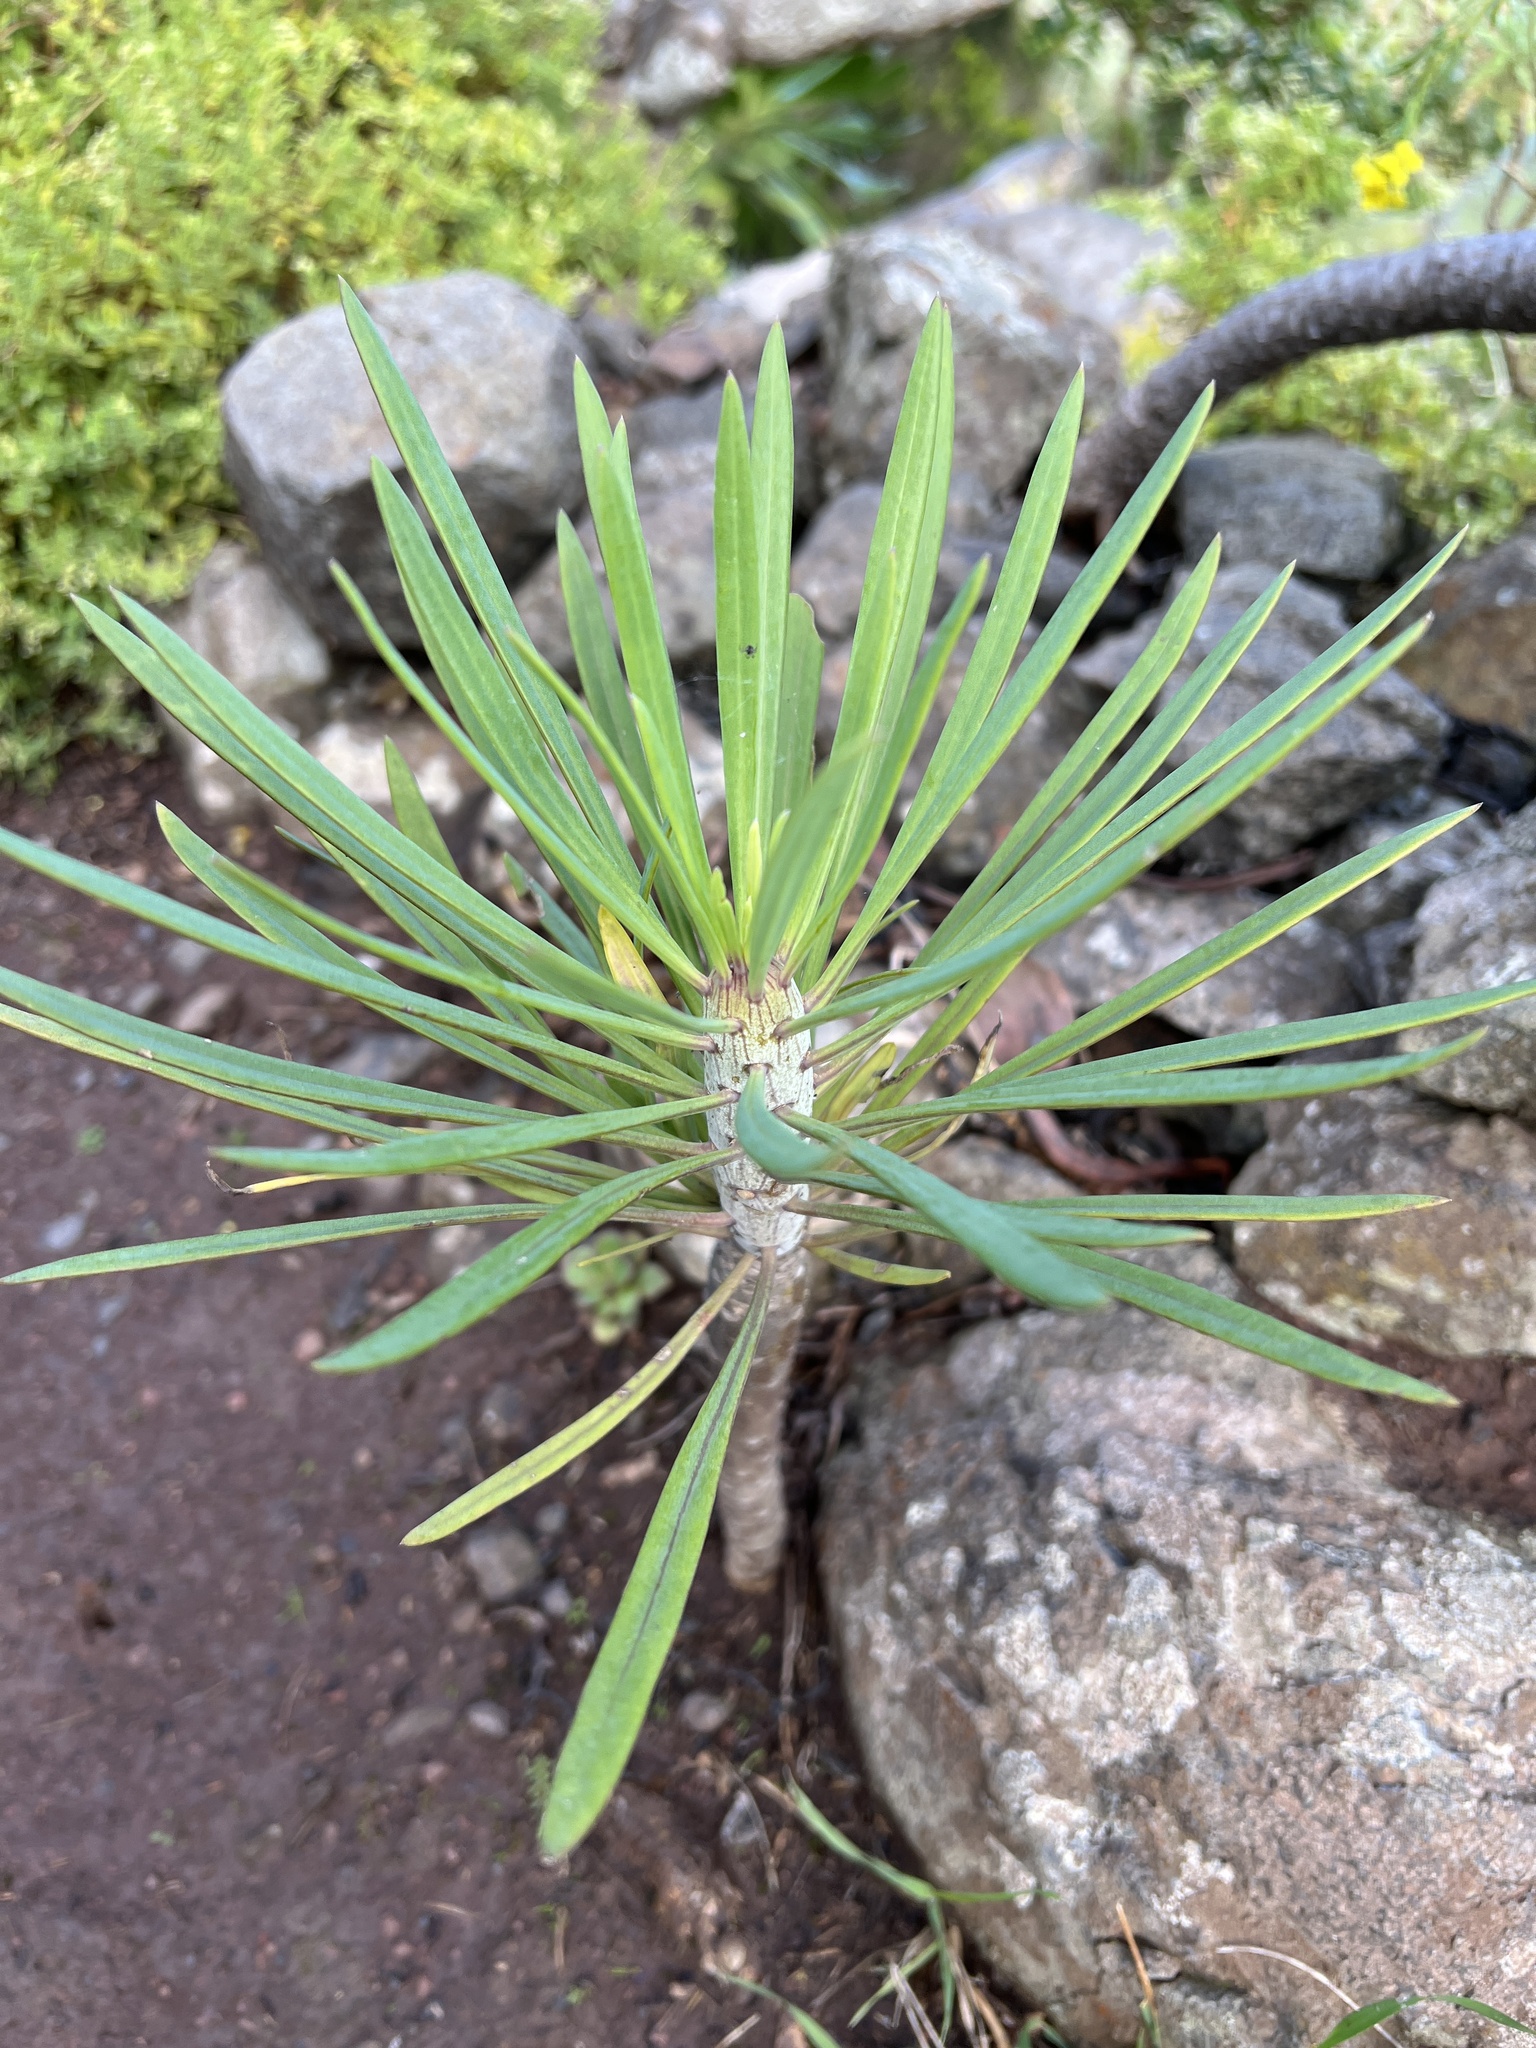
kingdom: Plantae
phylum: Tracheophyta
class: Magnoliopsida
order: Asterales
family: Asteraceae
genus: Kleinia
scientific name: Kleinia neriifolia
